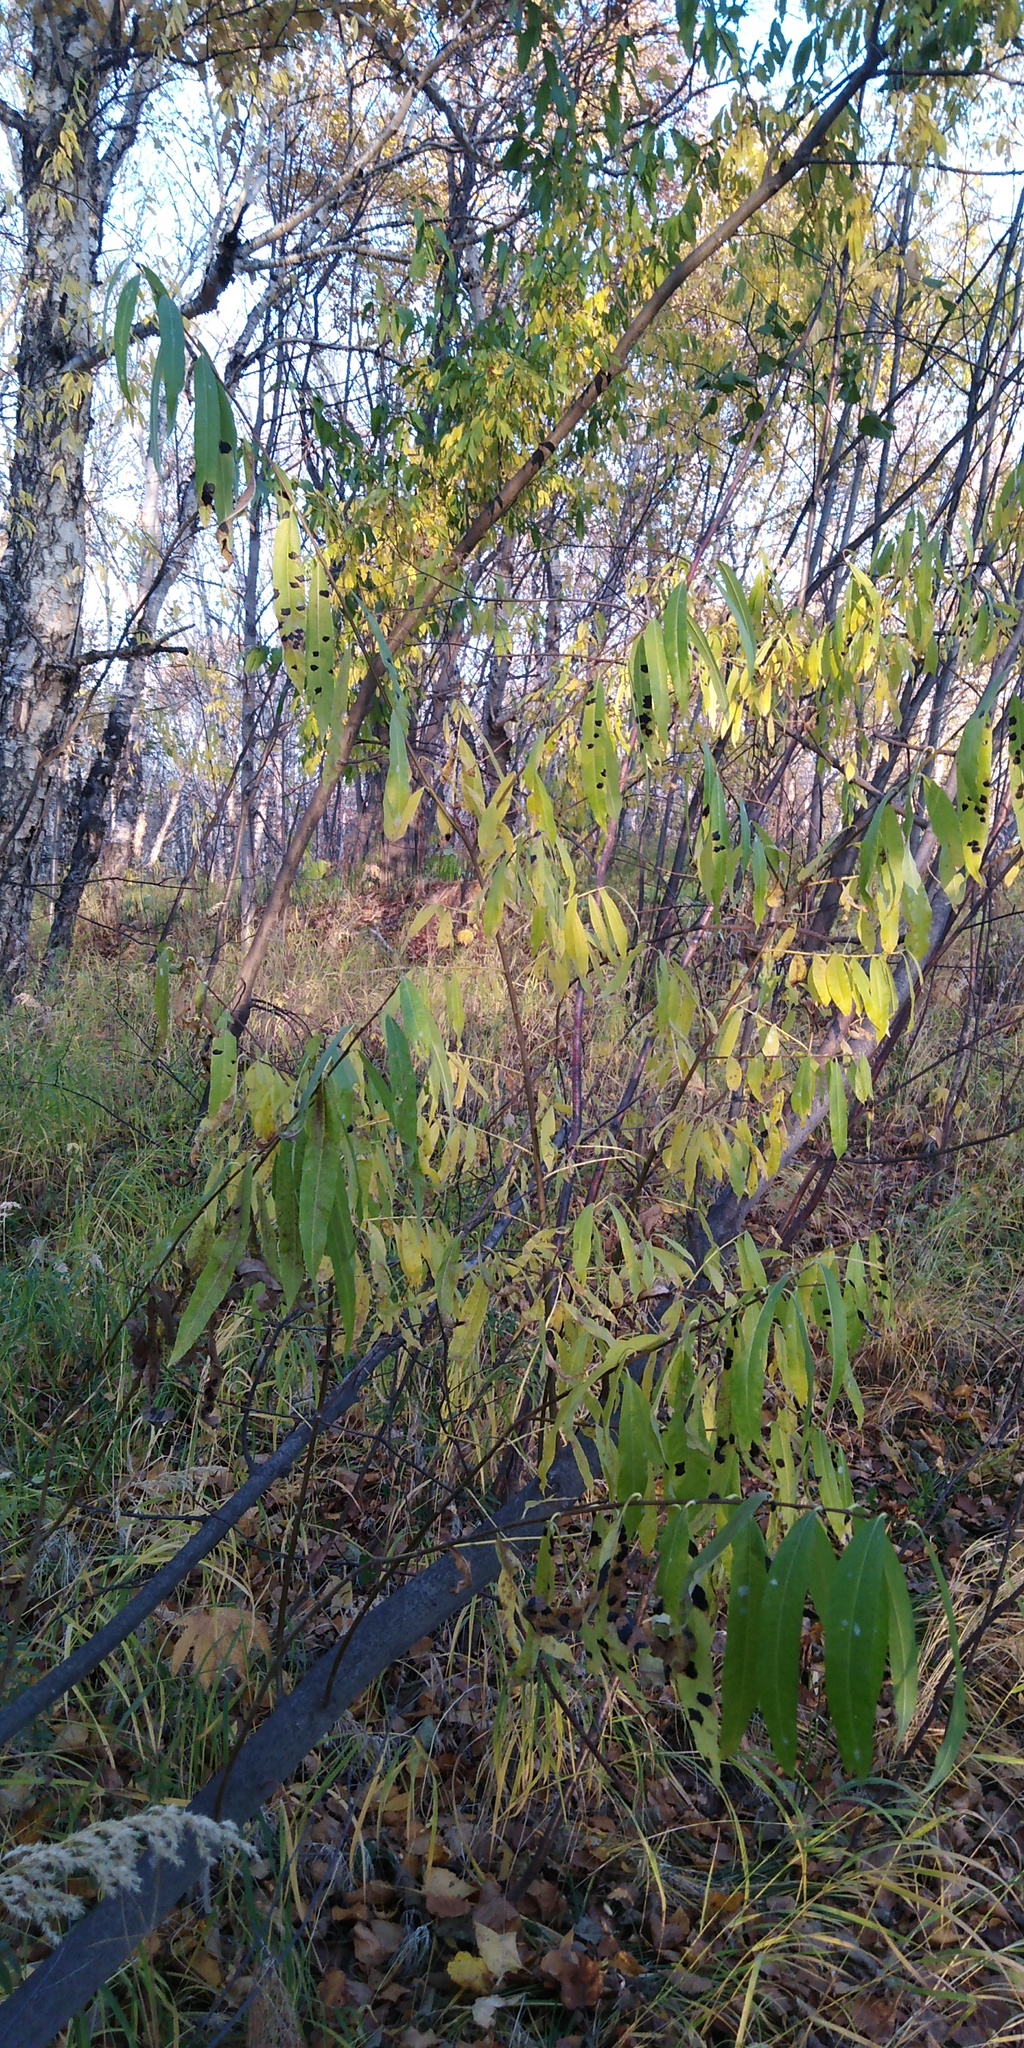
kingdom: Plantae
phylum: Tracheophyta
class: Magnoliopsida
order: Malpighiales
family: Salicaceae
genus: Salix
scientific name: Salix udensis
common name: Sachalin willow
